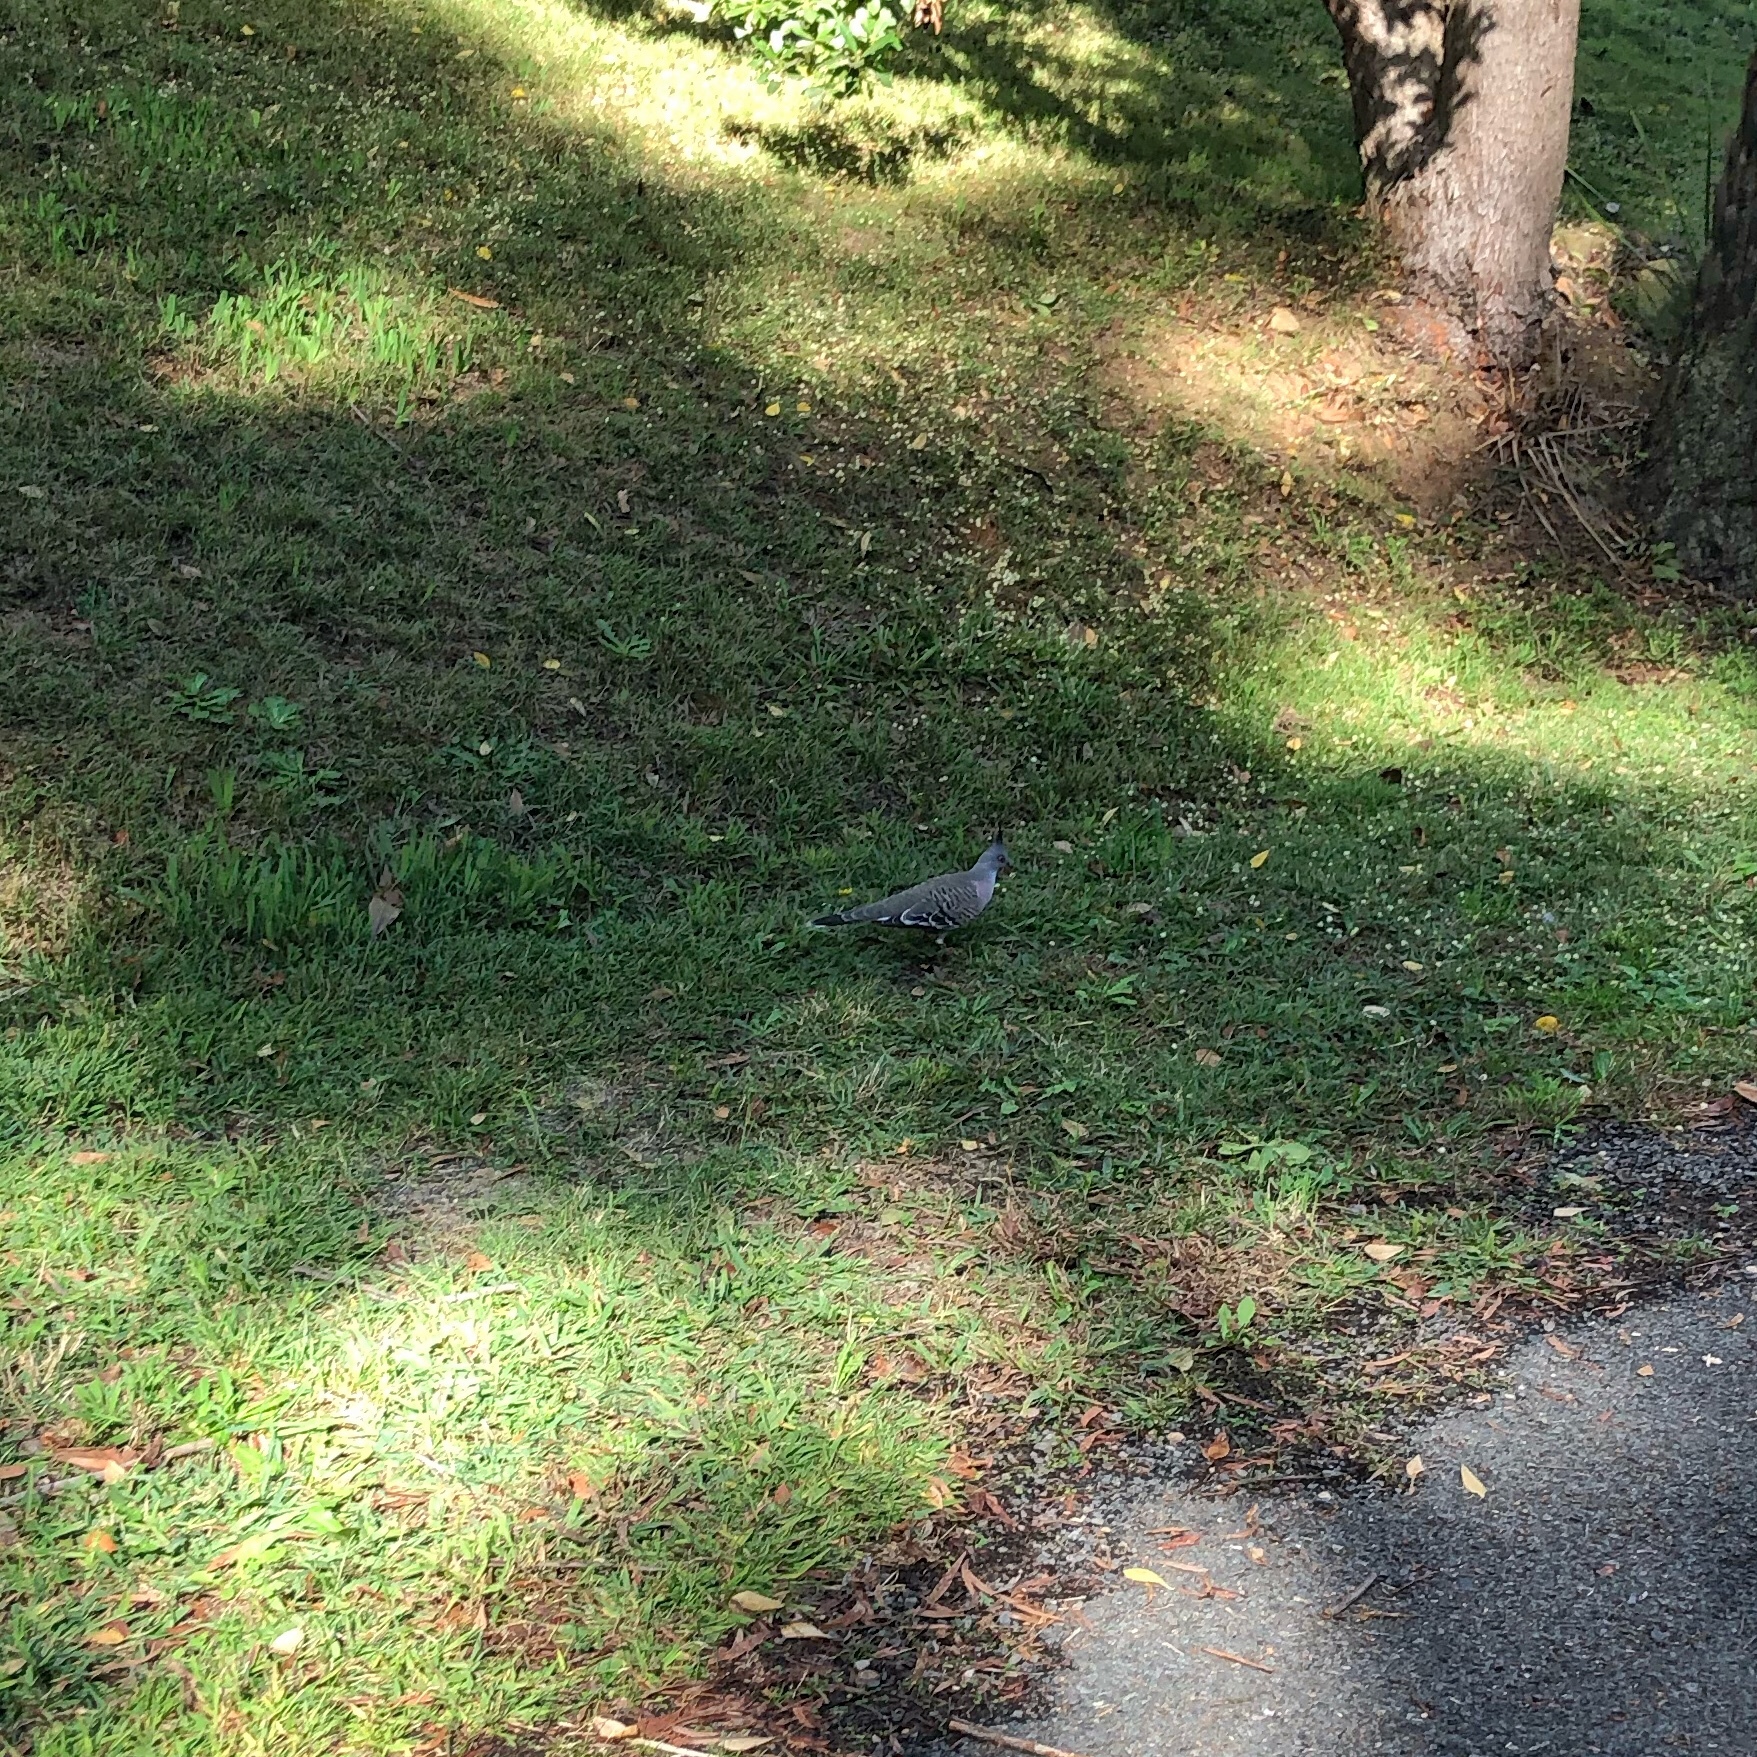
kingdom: Animalia
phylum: Chordata
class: Aves
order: Columbiformes
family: Columbidae
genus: Ocyphaps
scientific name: Ocyphaps lophotes
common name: Crested pigeon
